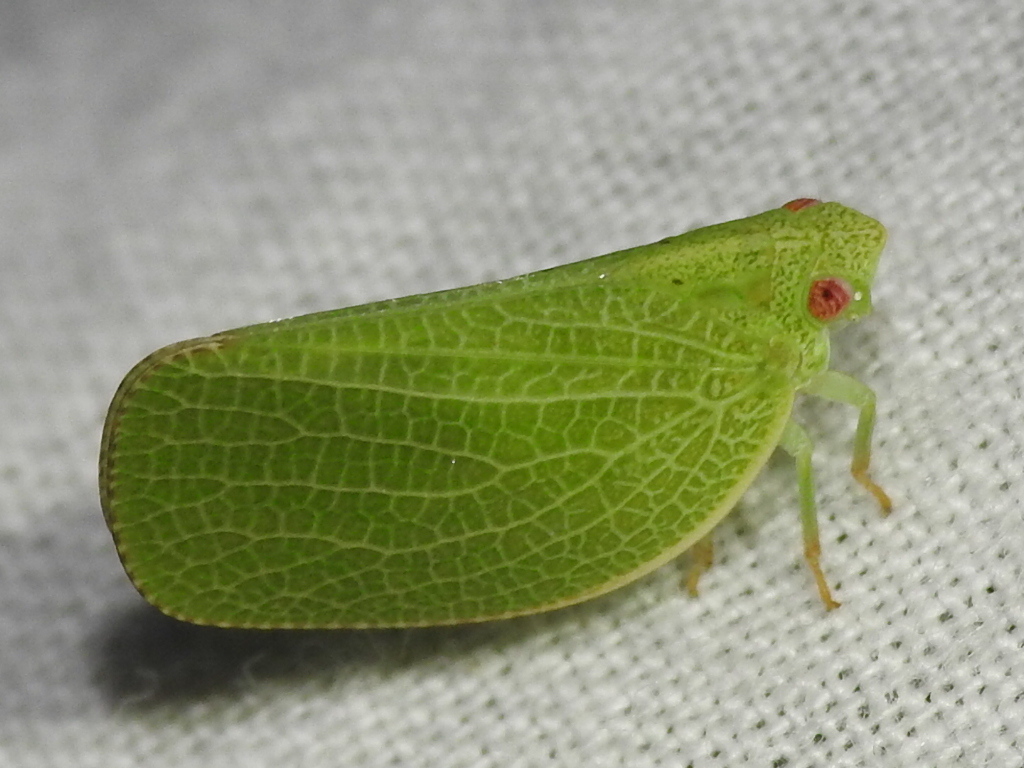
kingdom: Animalia
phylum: Arthropoda
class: Insecta
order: Hemiptera
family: Acanaloniidae
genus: Acanalonia
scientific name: Acanalonia conica
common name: Green cone-headed planthopper
